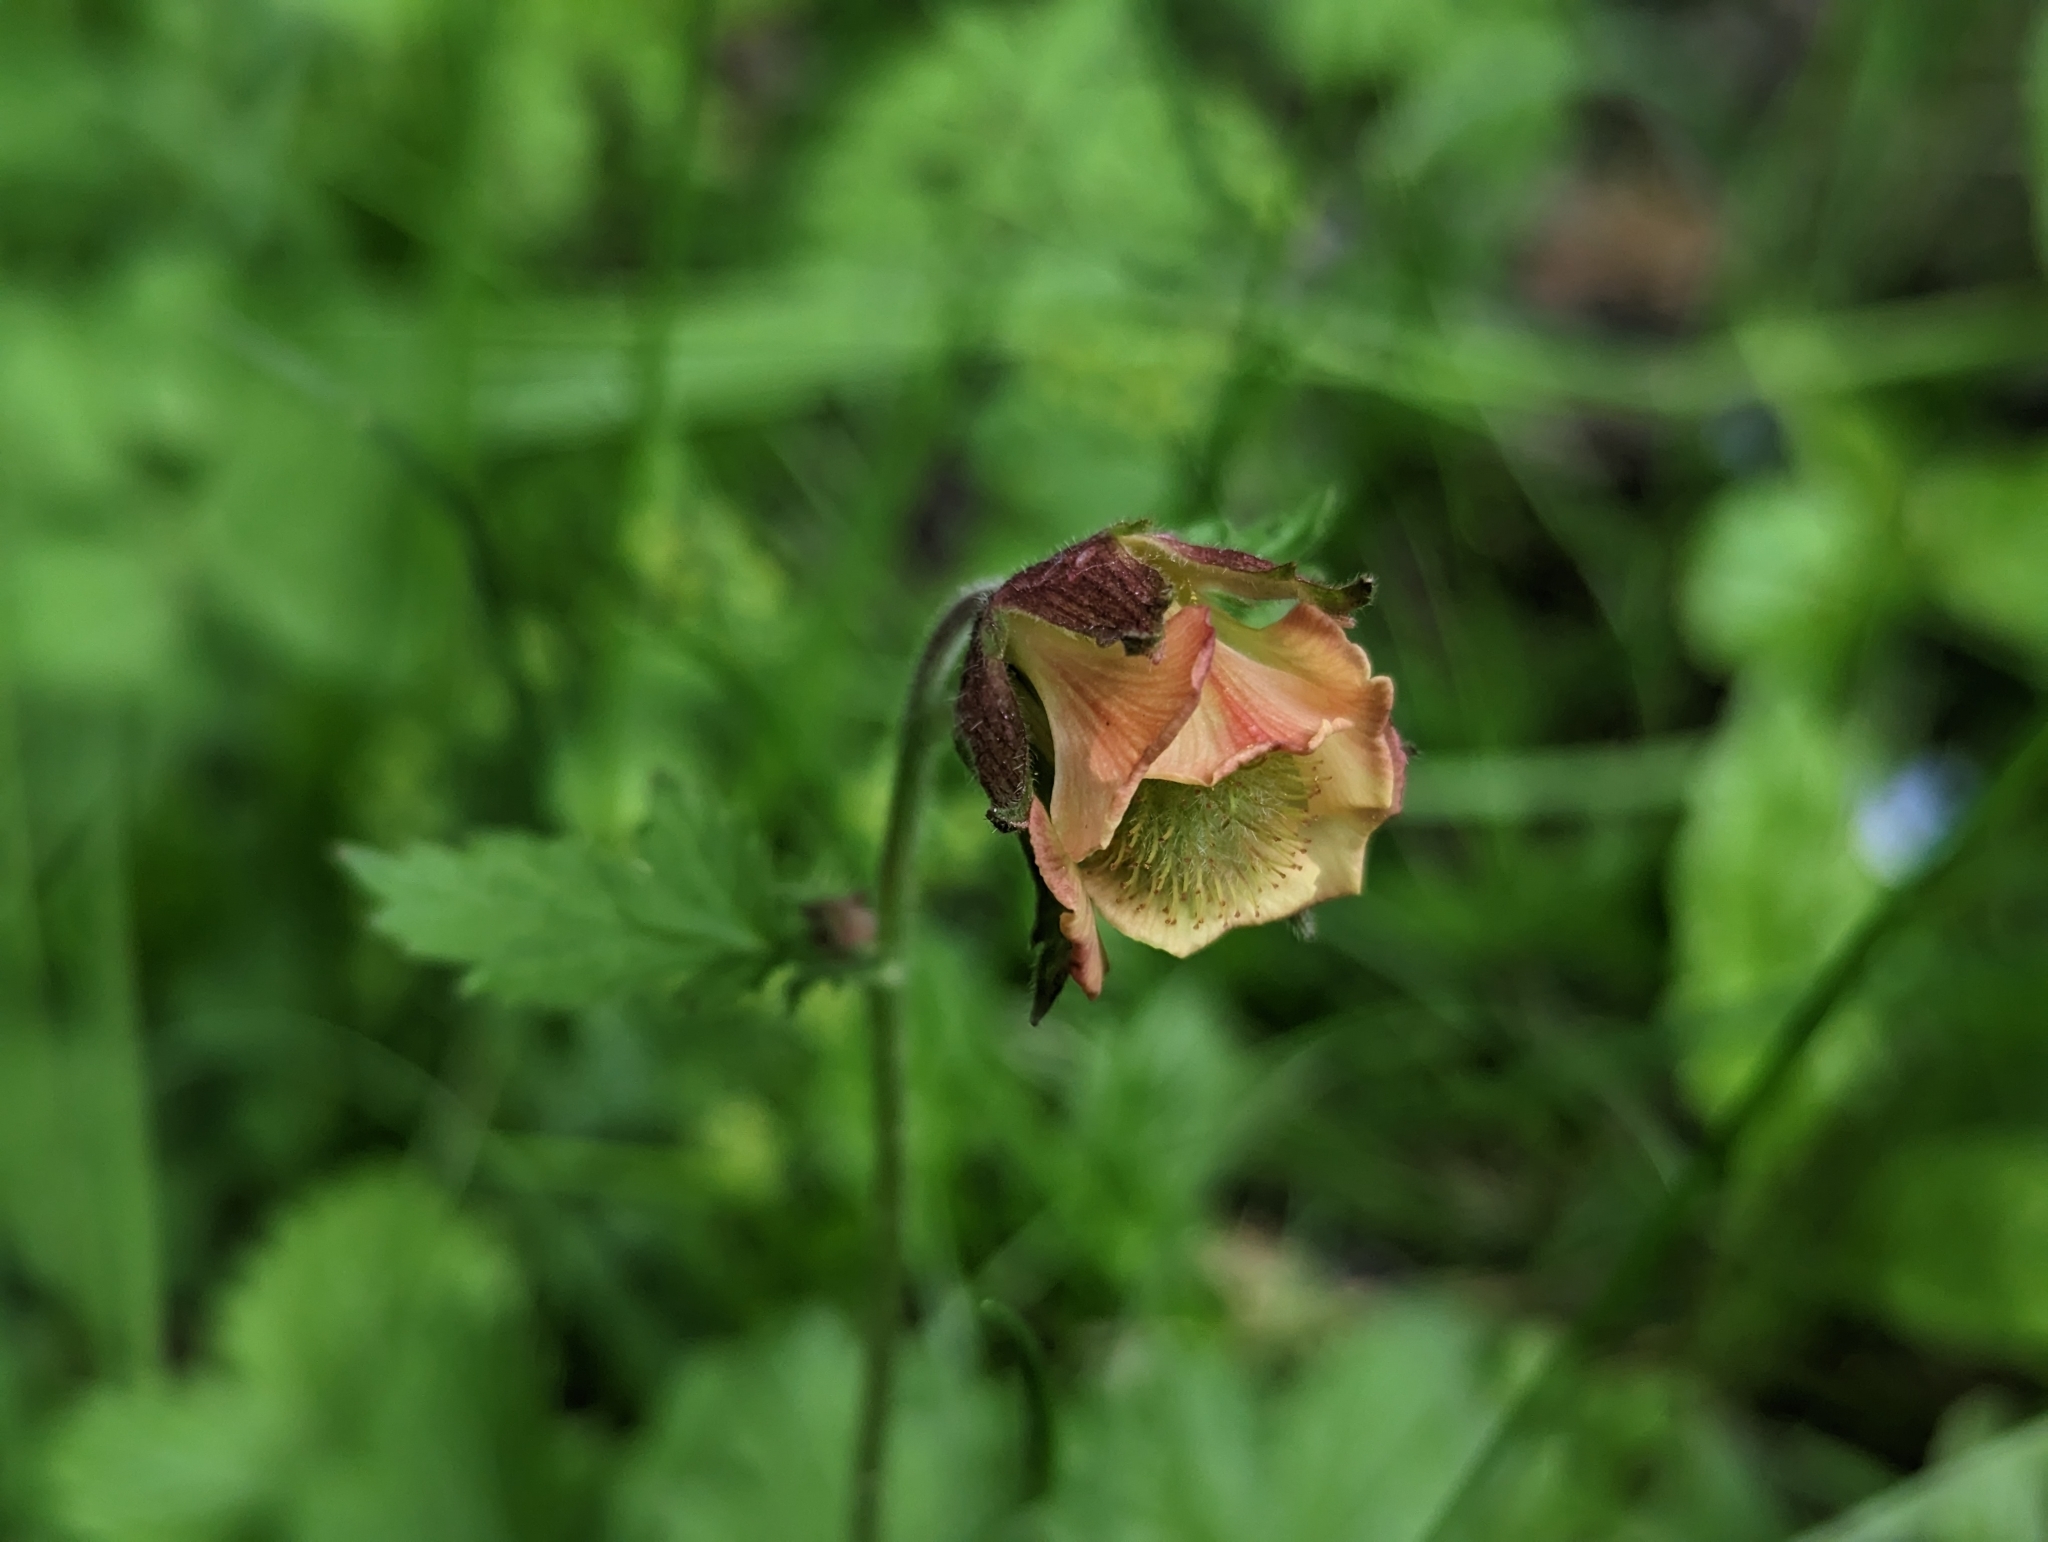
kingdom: Plantae
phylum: Tracheophyta
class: Magnoliopsida
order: Rosales
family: Rosaceae
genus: Geum
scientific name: Geum rivale
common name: Water avens
